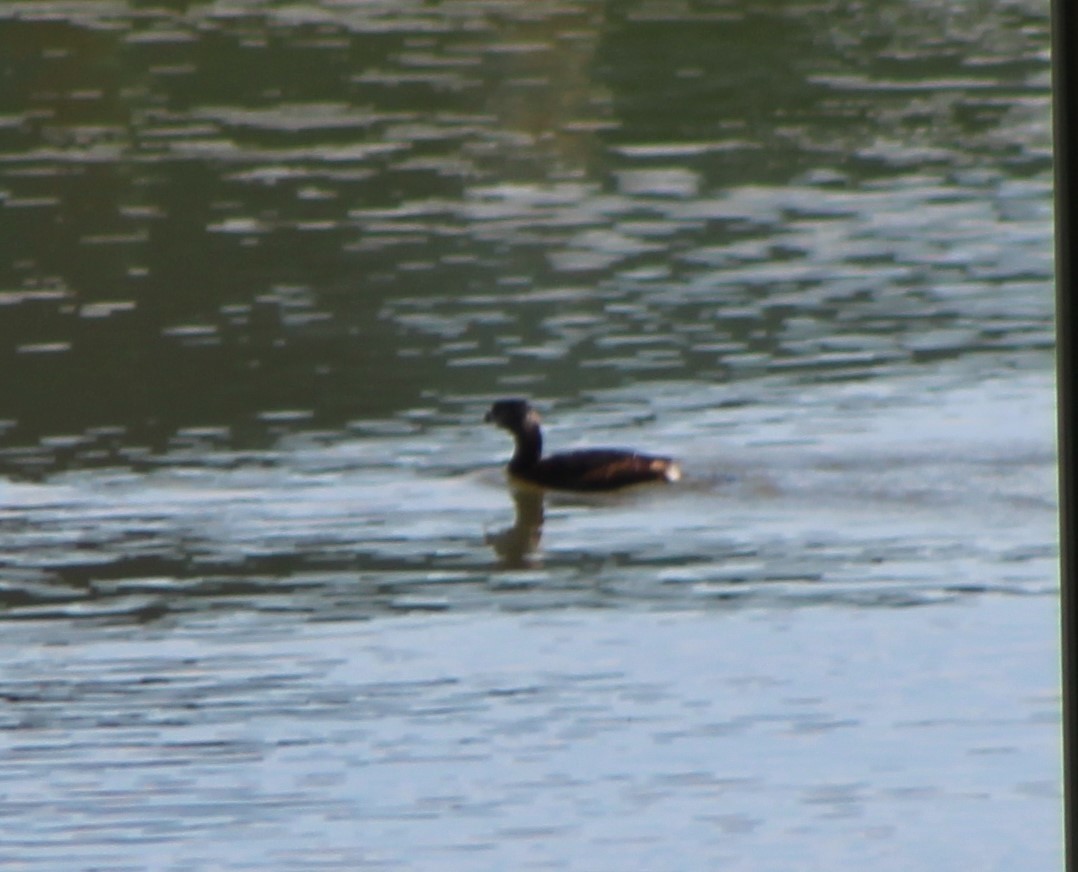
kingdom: Animalia
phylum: Chordata
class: Aves
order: Podicipediformes
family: Podicipedidae
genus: Podilymbus
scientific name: Podilymbus podiceps
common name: Pied-billed grebe
